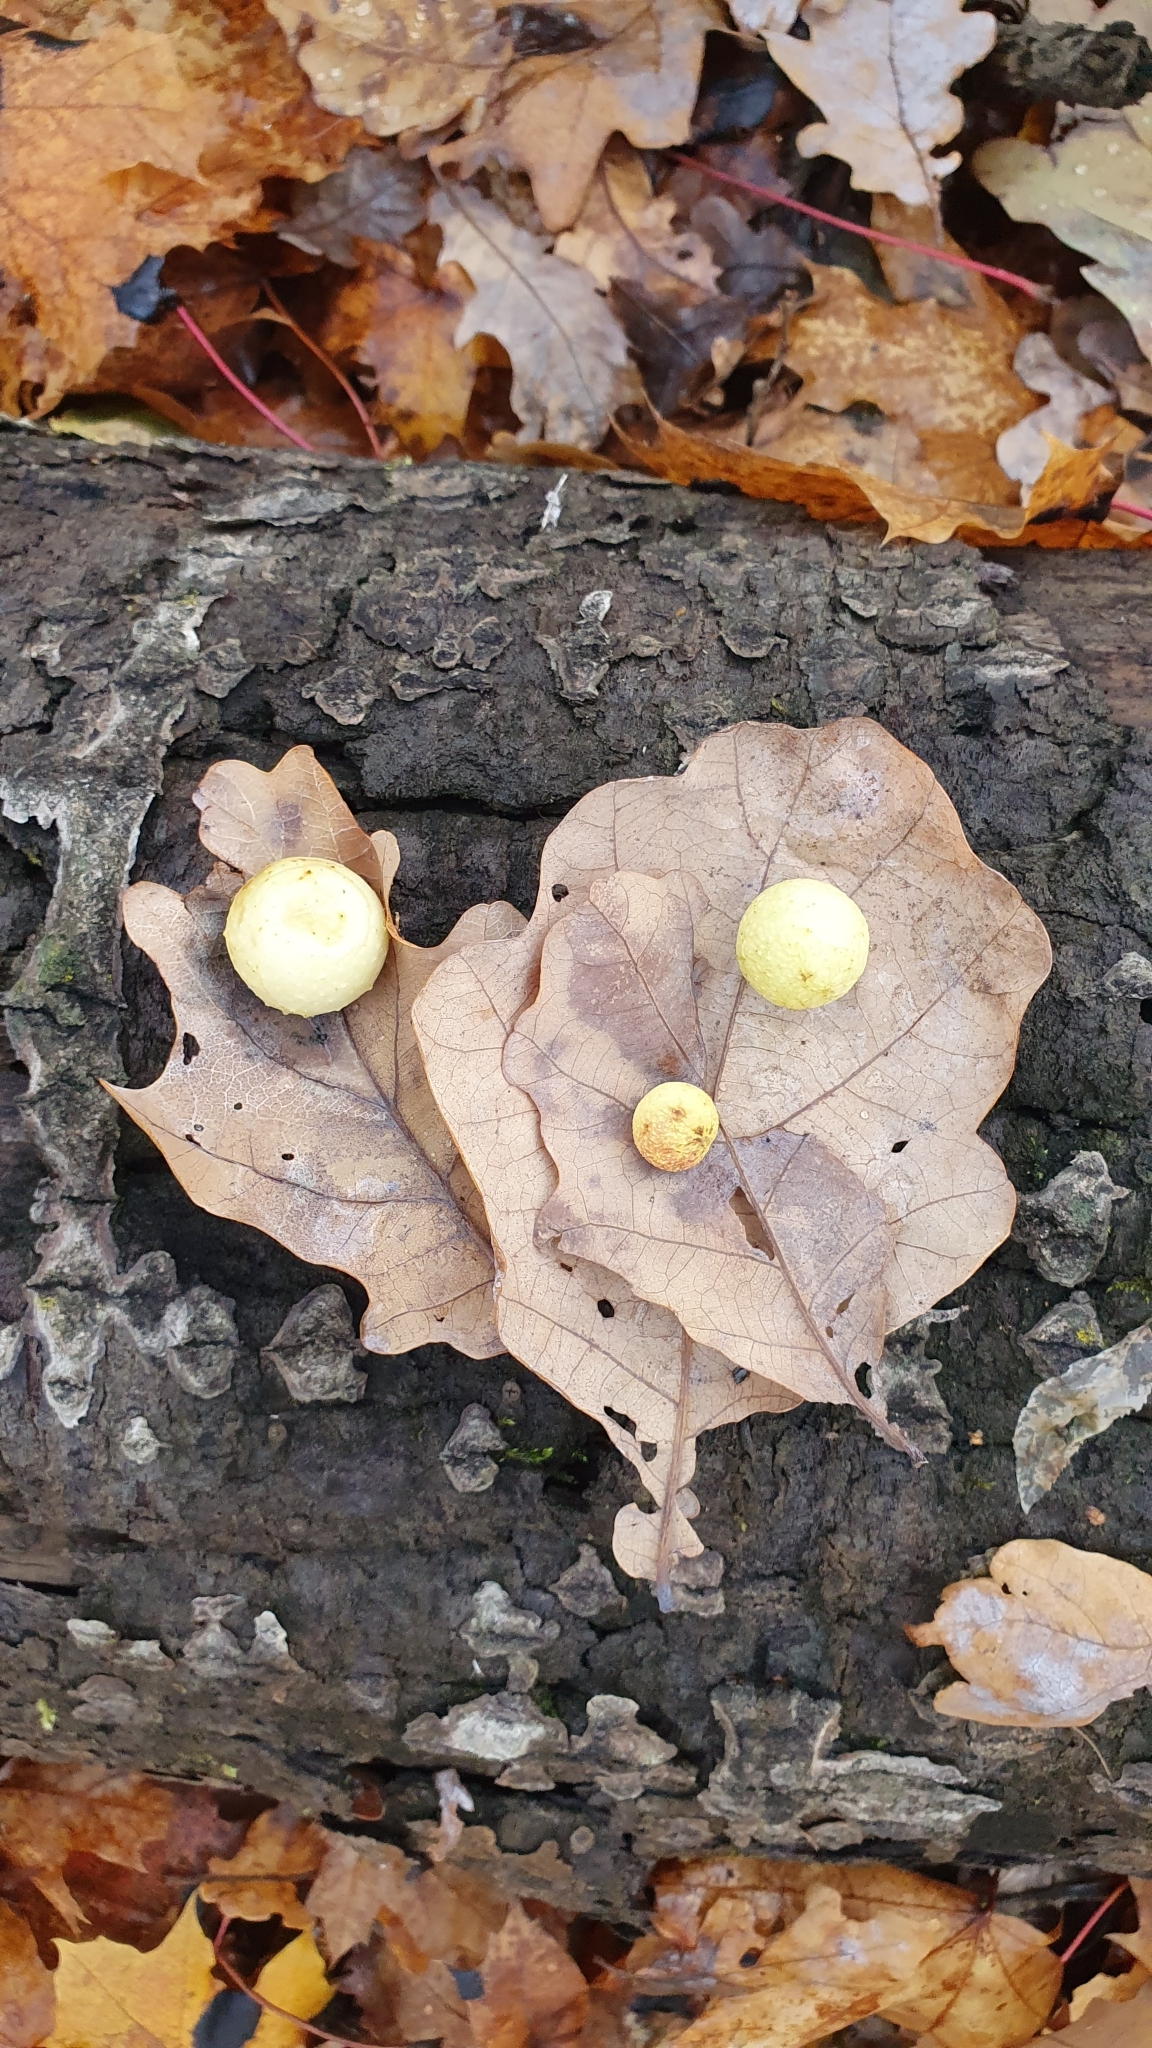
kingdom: Animalia
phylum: Arthropoda
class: Insecta
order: Hymenoptera
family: Cynipidae
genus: Cynips
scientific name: Cynips quercusfolii
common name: Cherry gall
